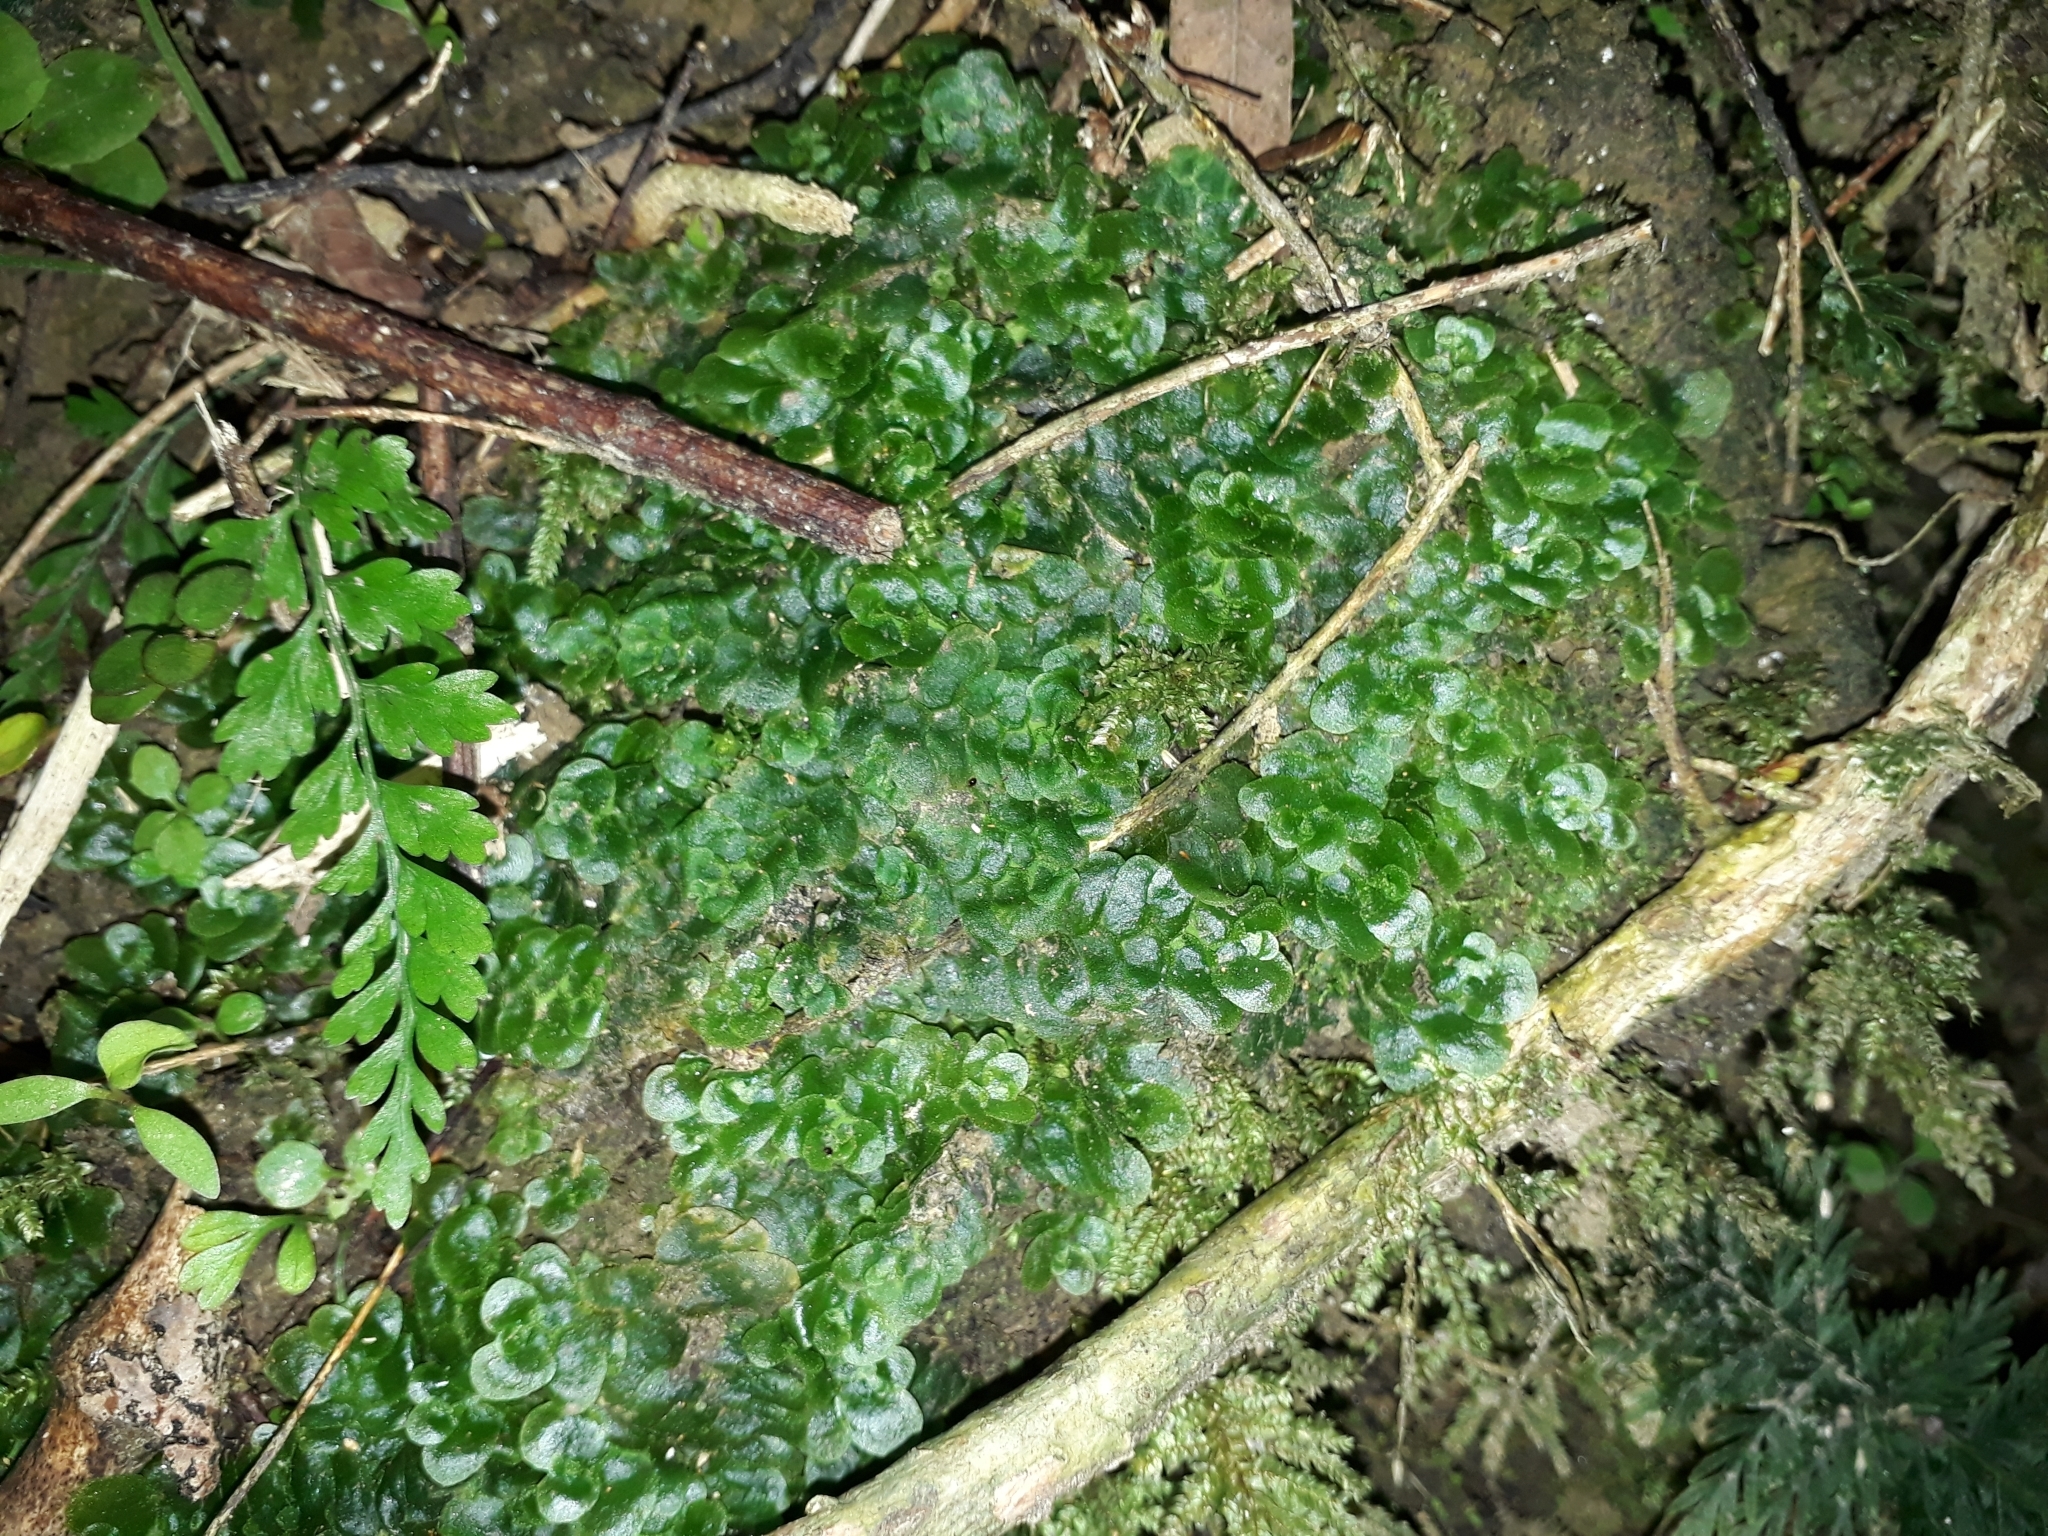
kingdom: Plantae
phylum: Marchantiophyta
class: Haplomitriopsida
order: Treubiales
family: Treubiaceae
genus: Treubia
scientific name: Treubia lacunosa
